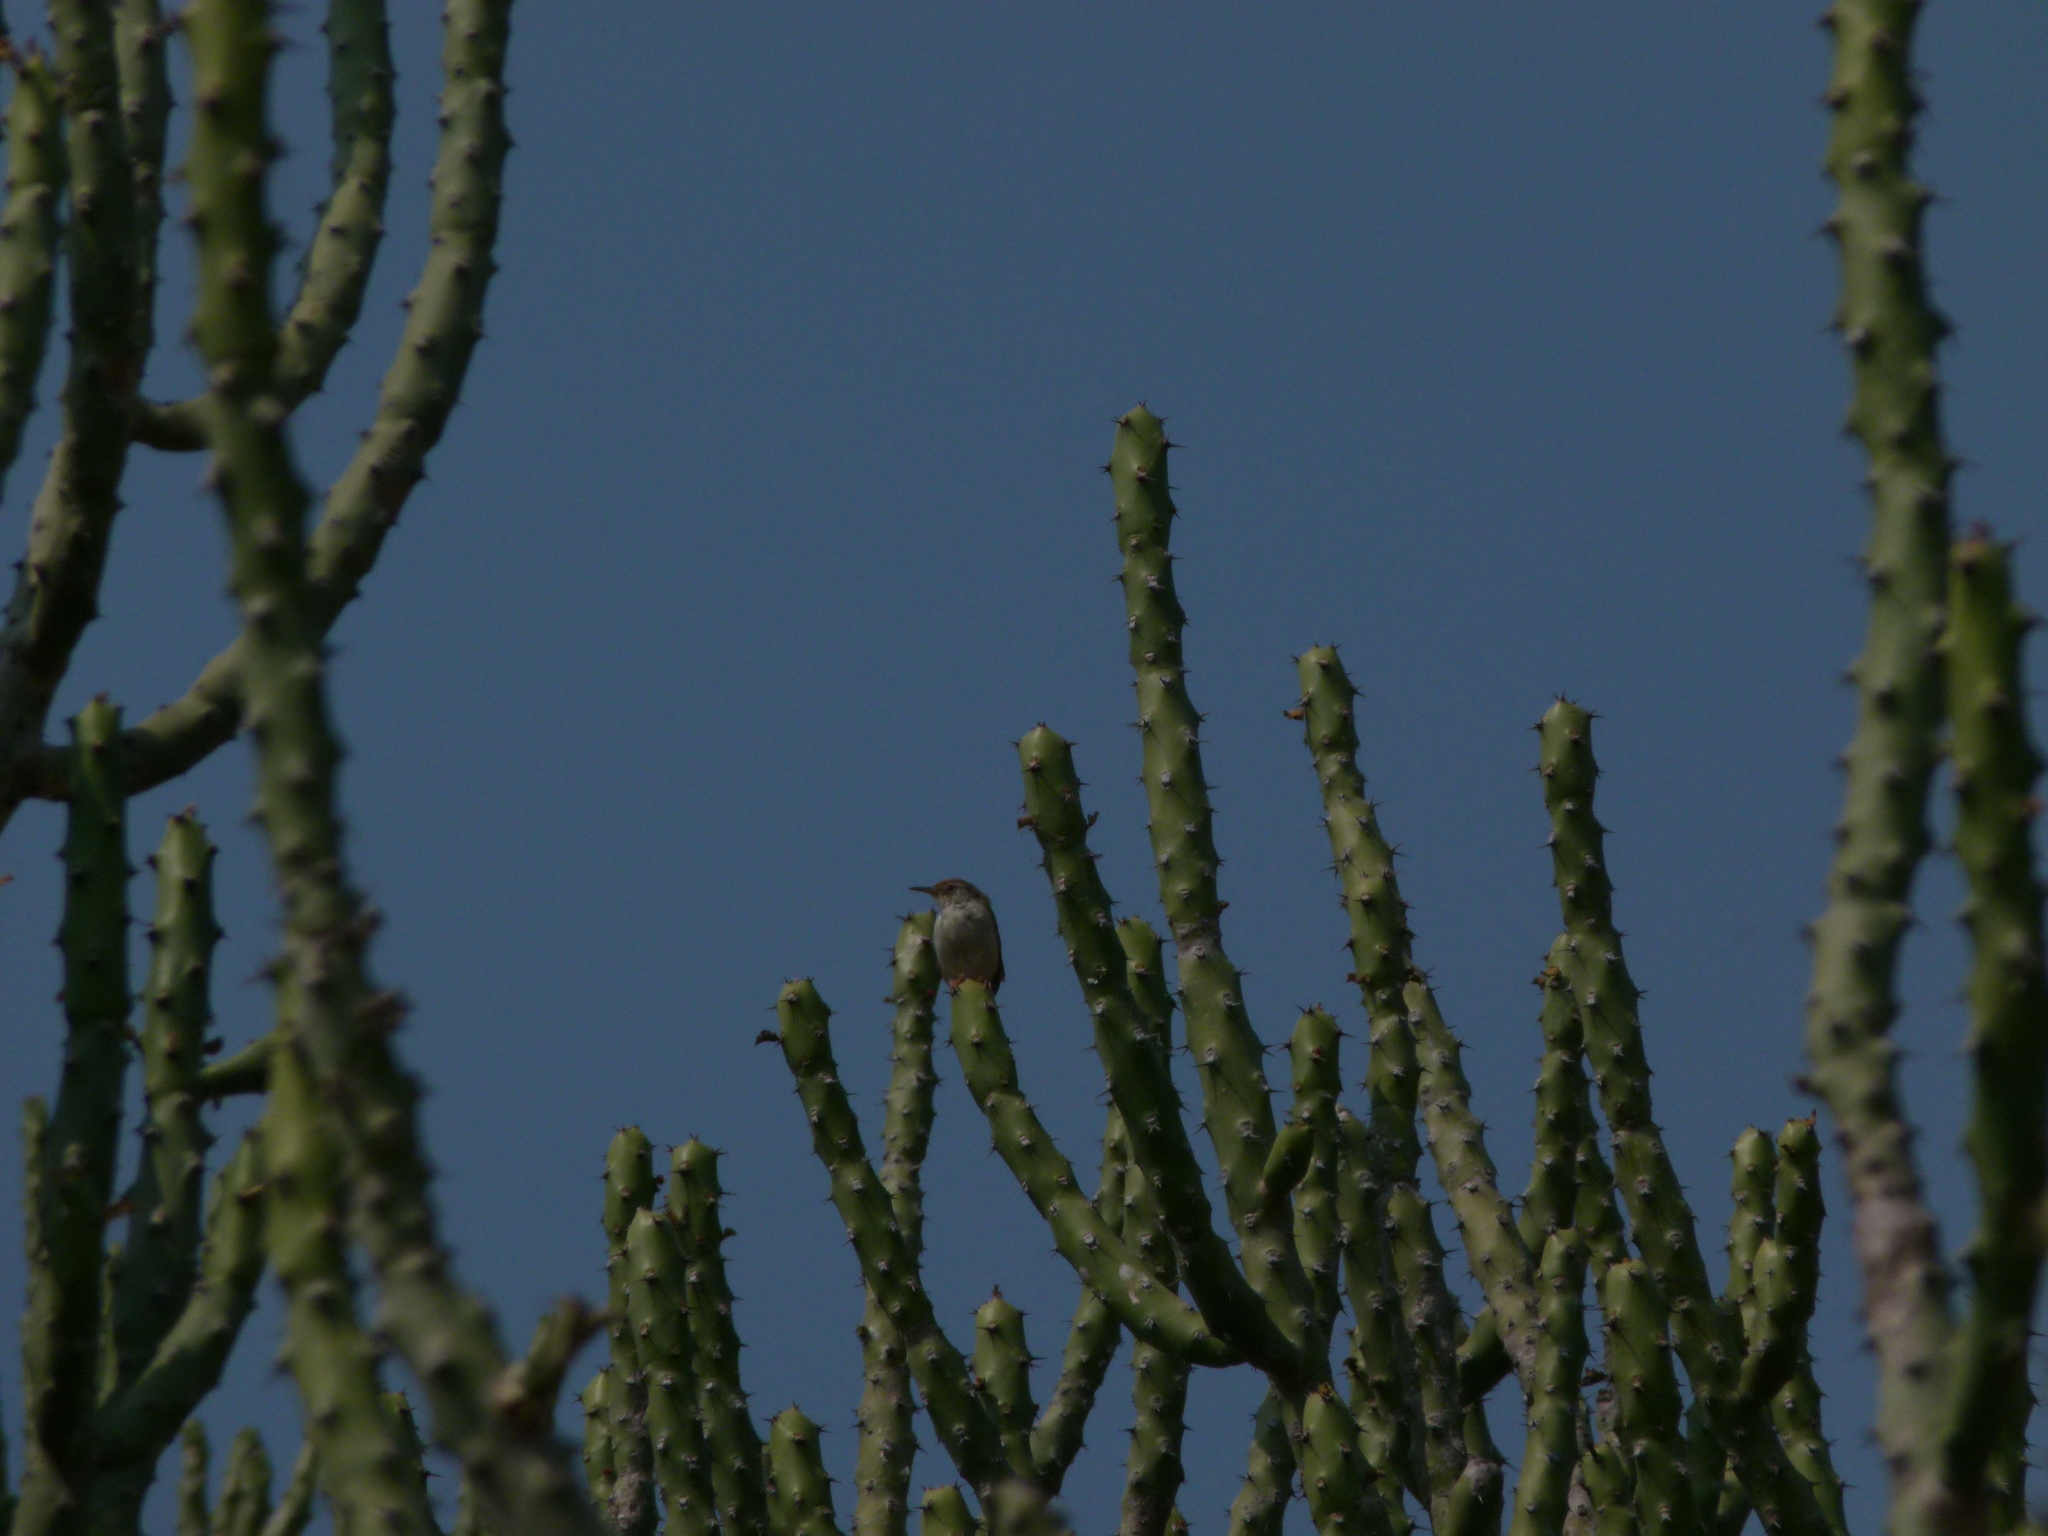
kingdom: Animalia
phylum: Chordata
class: Aves
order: Passeriformes
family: Cisticolidae
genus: Prinia
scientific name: Prinia buchanani
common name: Rufous-fronted prinia
